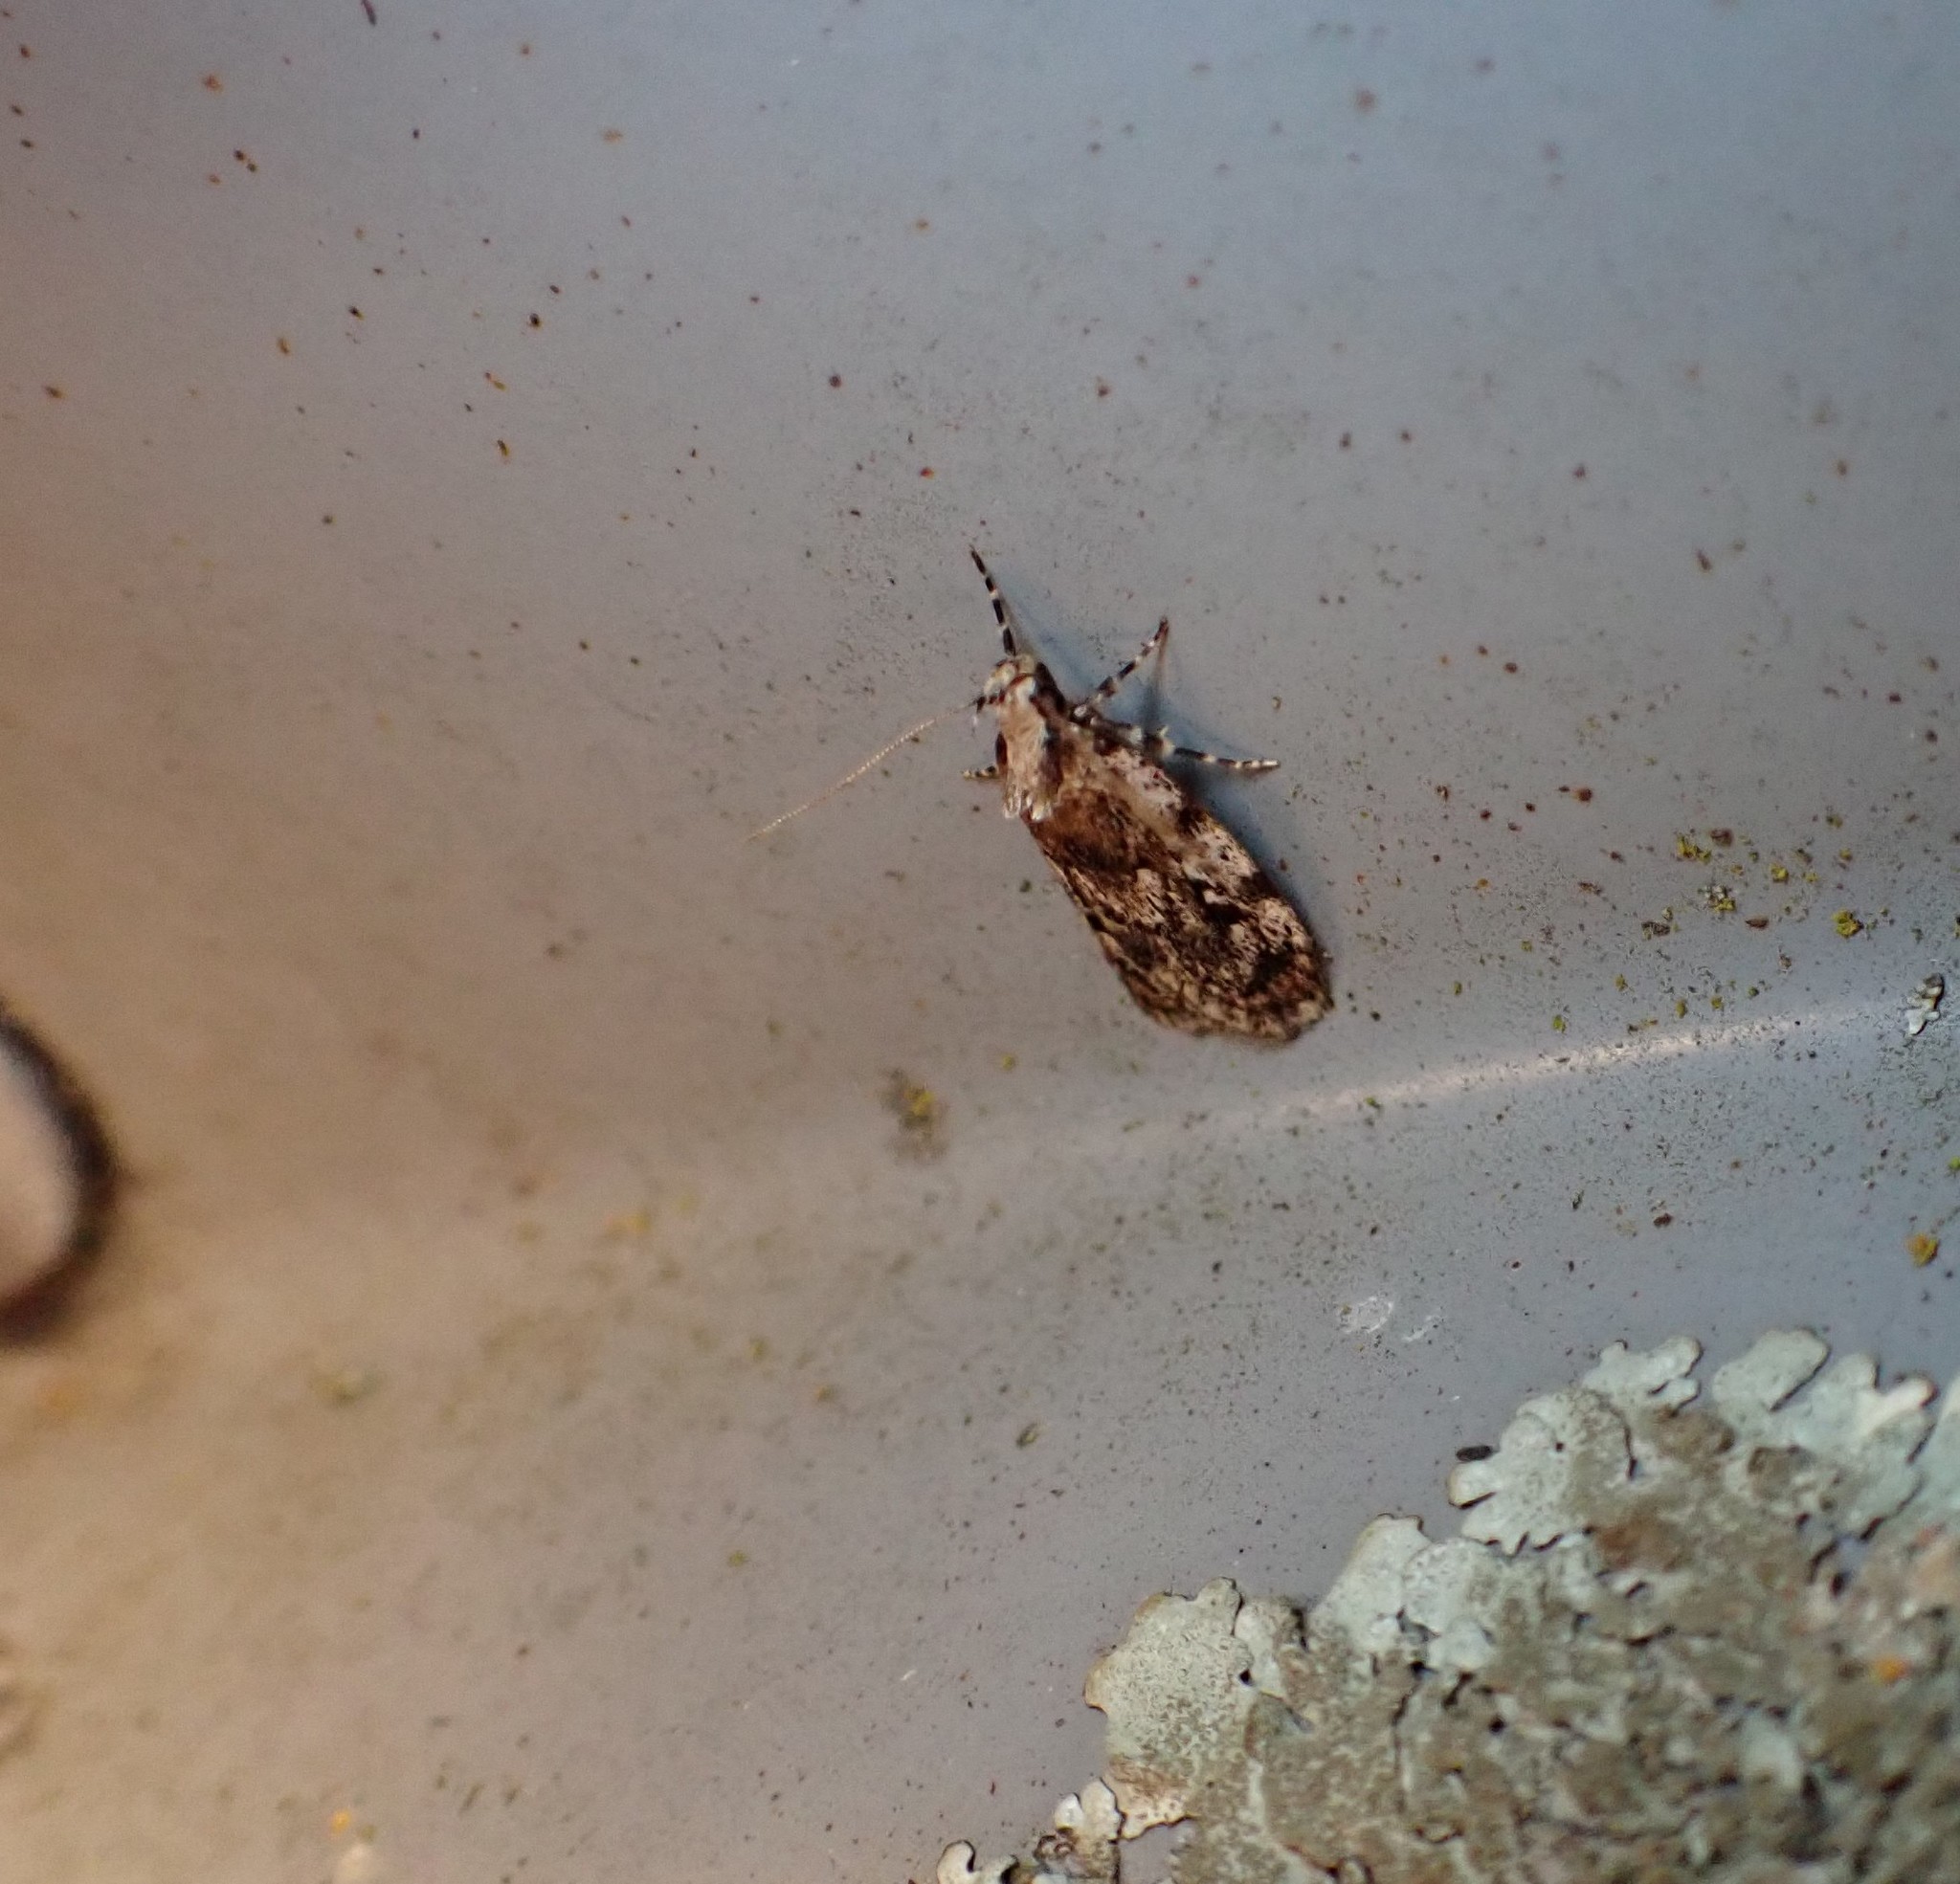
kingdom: Animalia
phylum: Arthropoda
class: Insecta
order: Lepidoptera
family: Oecophoridae
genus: Barea
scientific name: Barea exarcha
